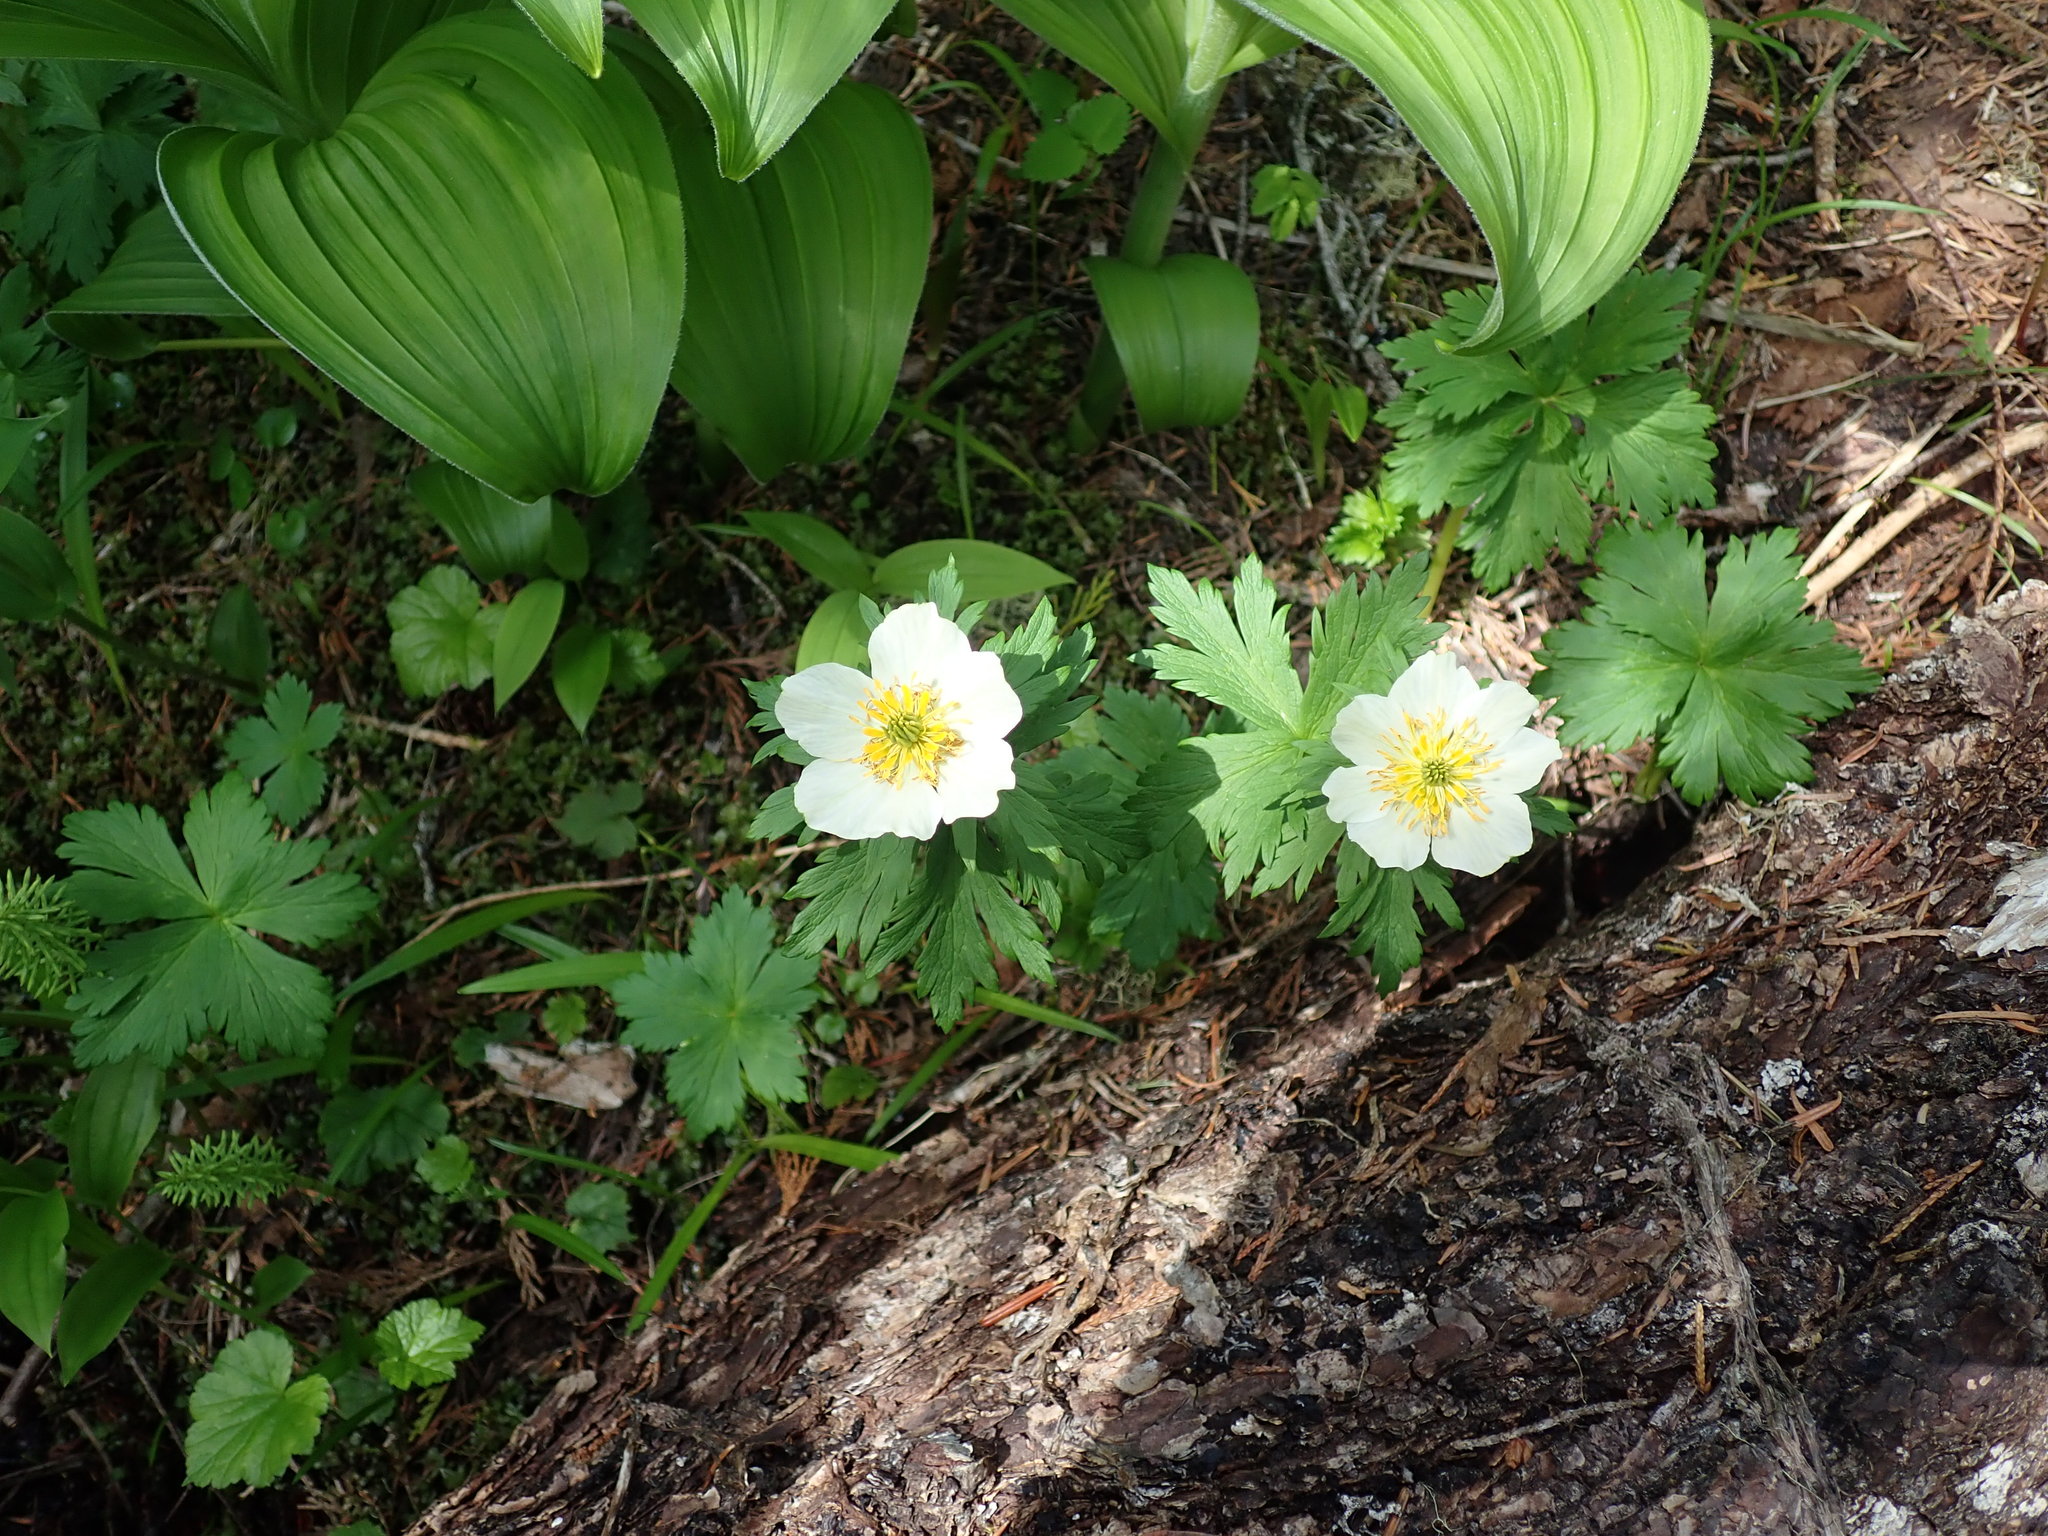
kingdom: Plantae
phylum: Tracheophyta
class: Magnoliopsida
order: Ranunculales
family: Ranunculaceae
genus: Trollius
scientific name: Trollius laxus
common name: American globeflower
